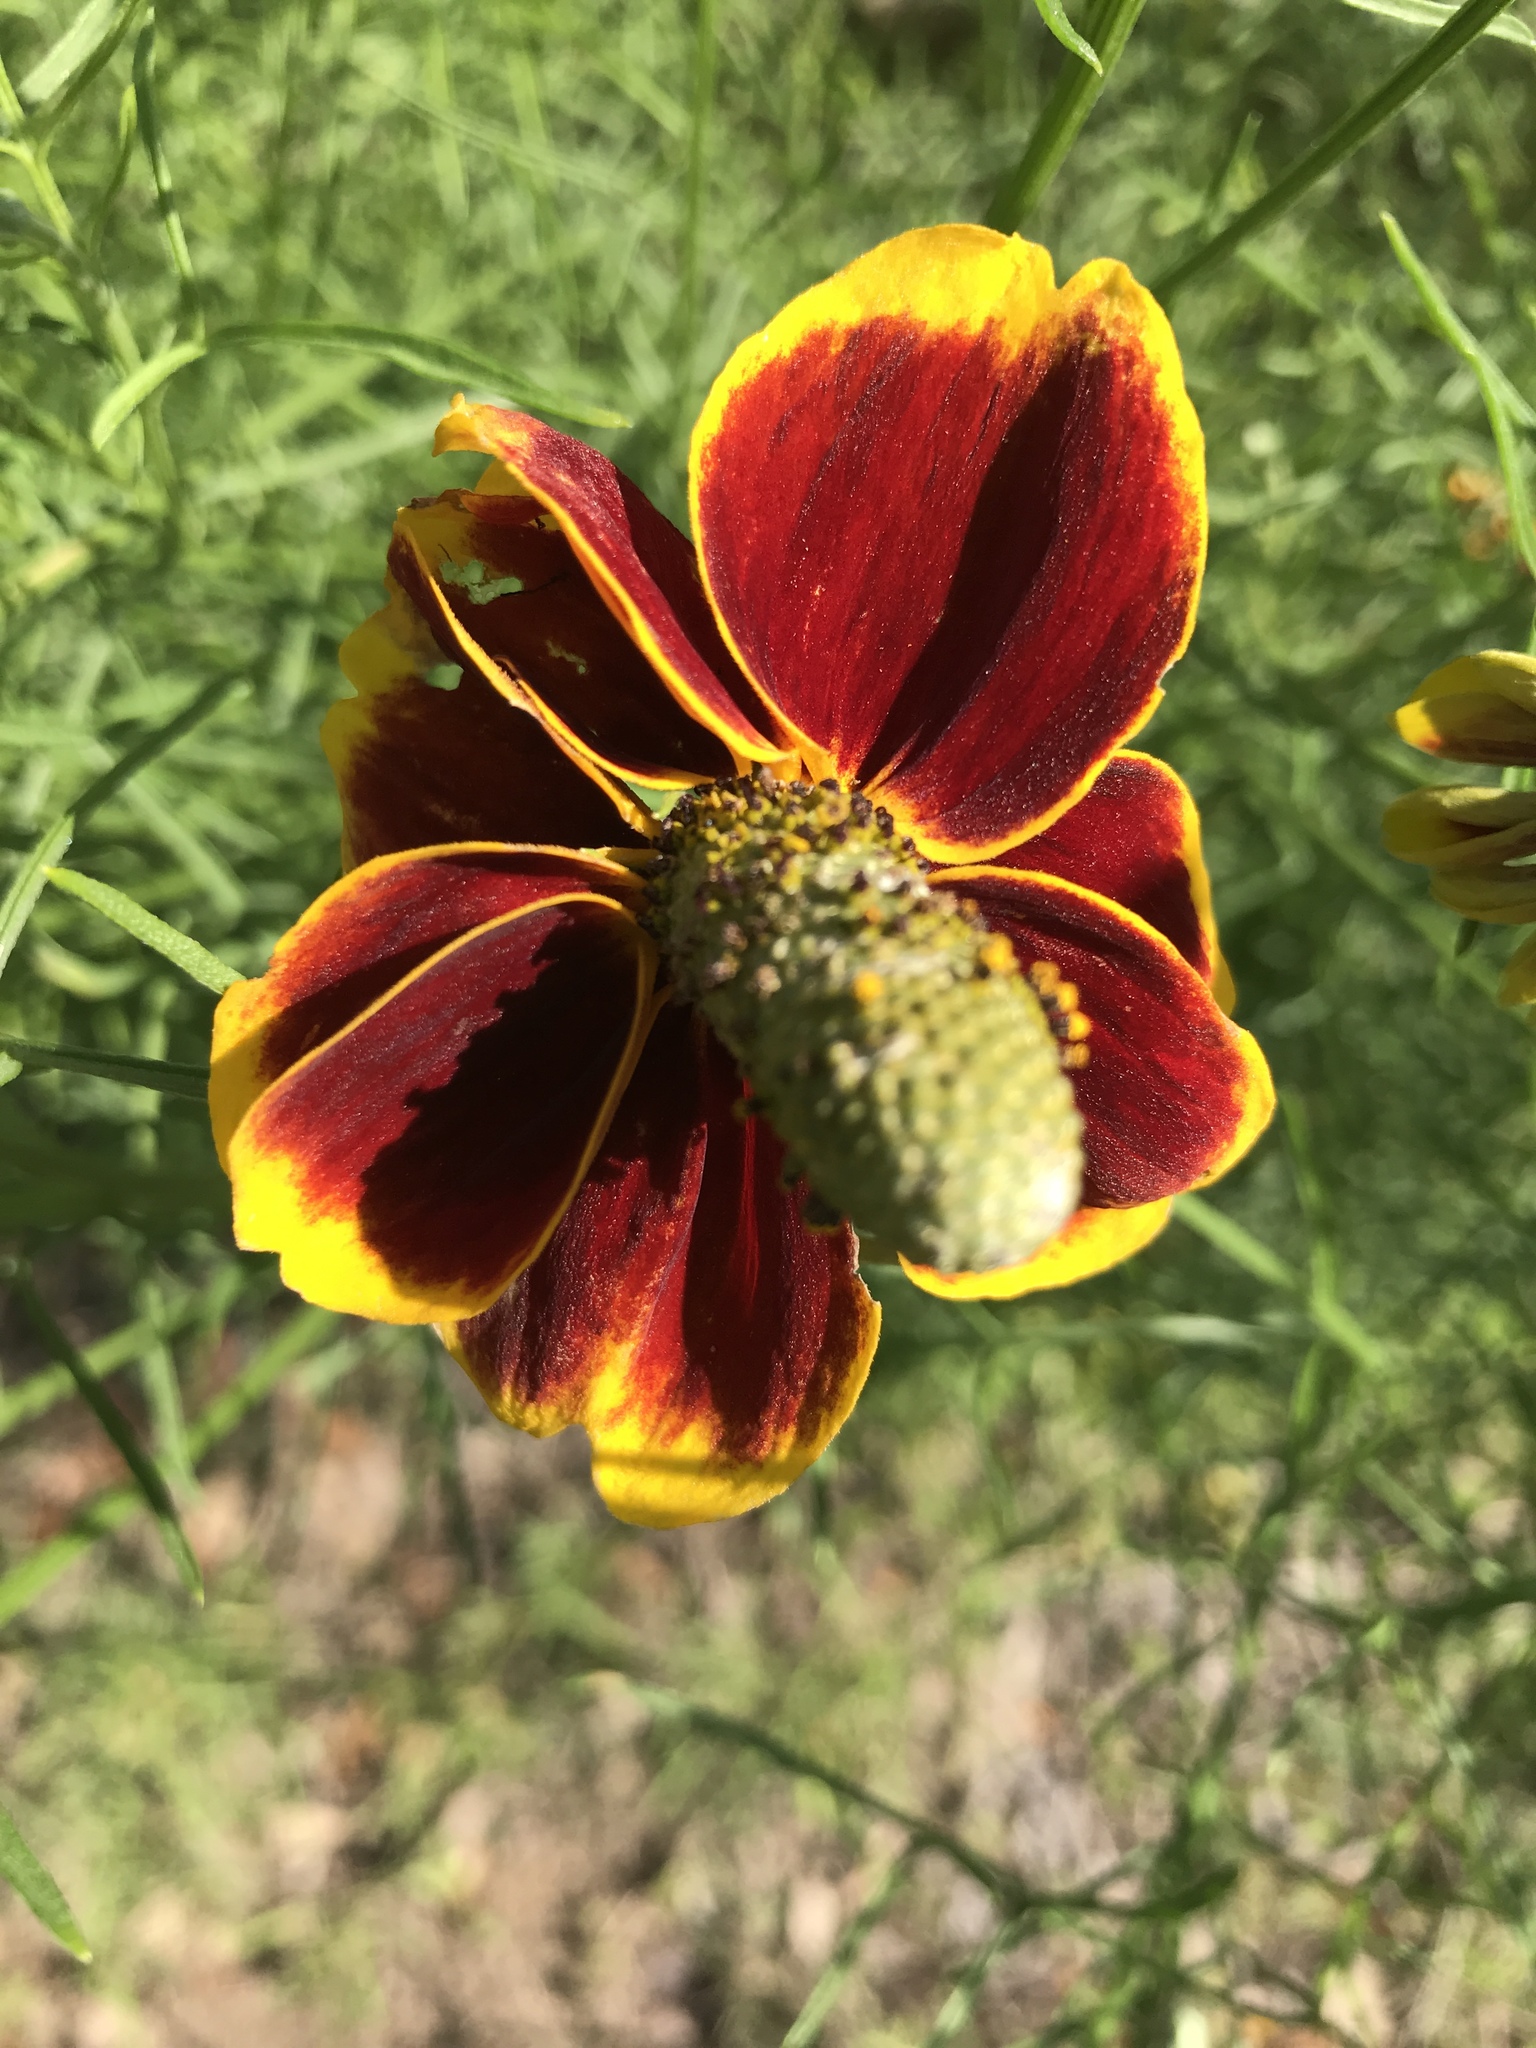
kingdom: Plantae
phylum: Tracheophyta
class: Magnoliopsida
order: Asterales
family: Asteraceae
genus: Ratibida
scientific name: Ratibida columnifera
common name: Prairie coneflower
